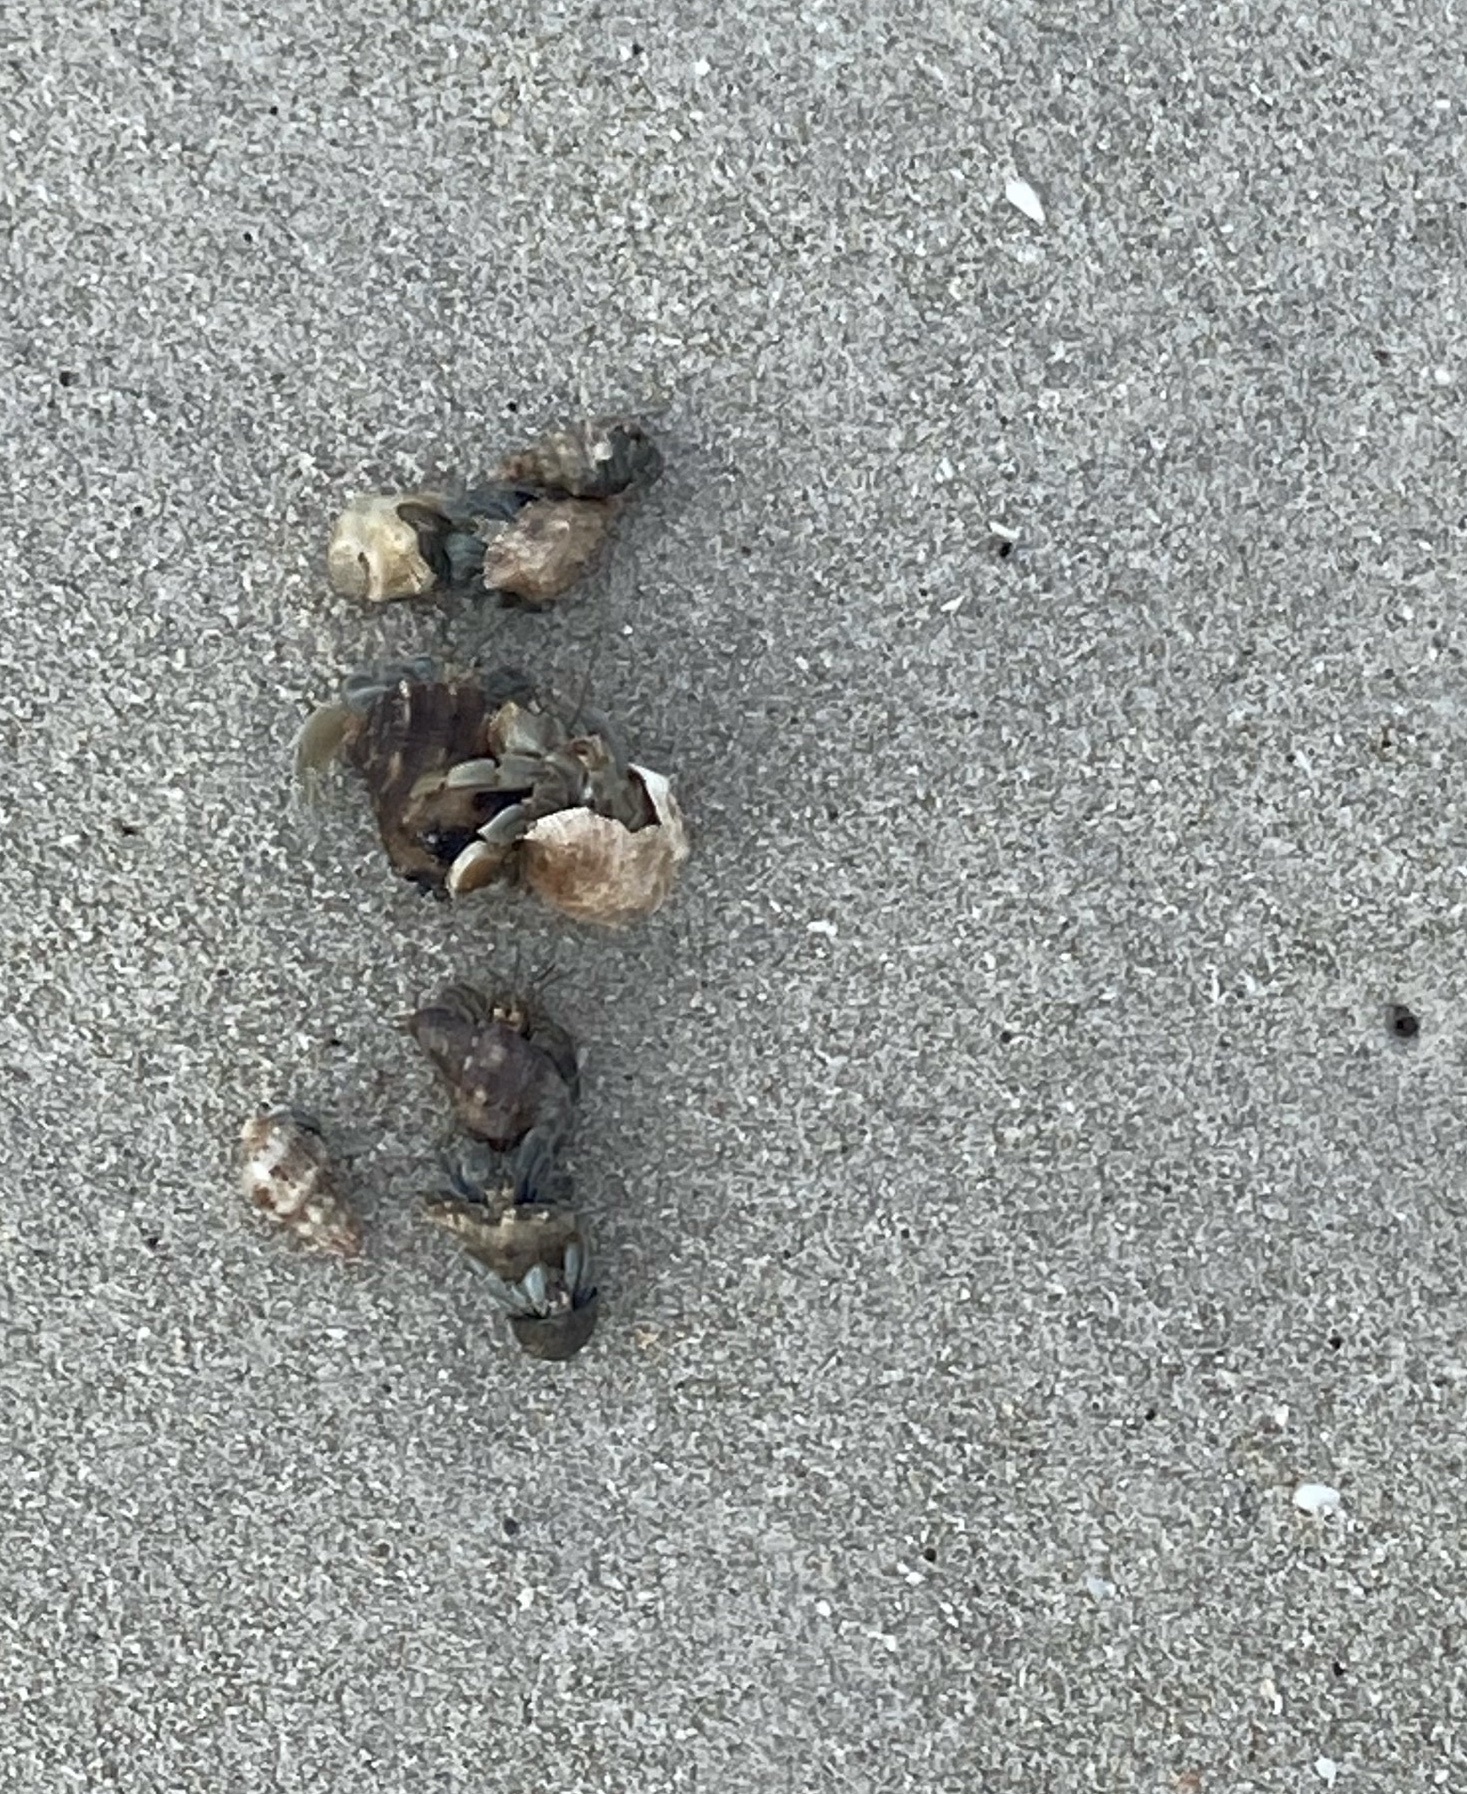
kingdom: Animalia
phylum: Arthropoda
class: Malacostraca
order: Decapoda
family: Coenobitidae
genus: Coenobita
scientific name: Coenobita compressus
